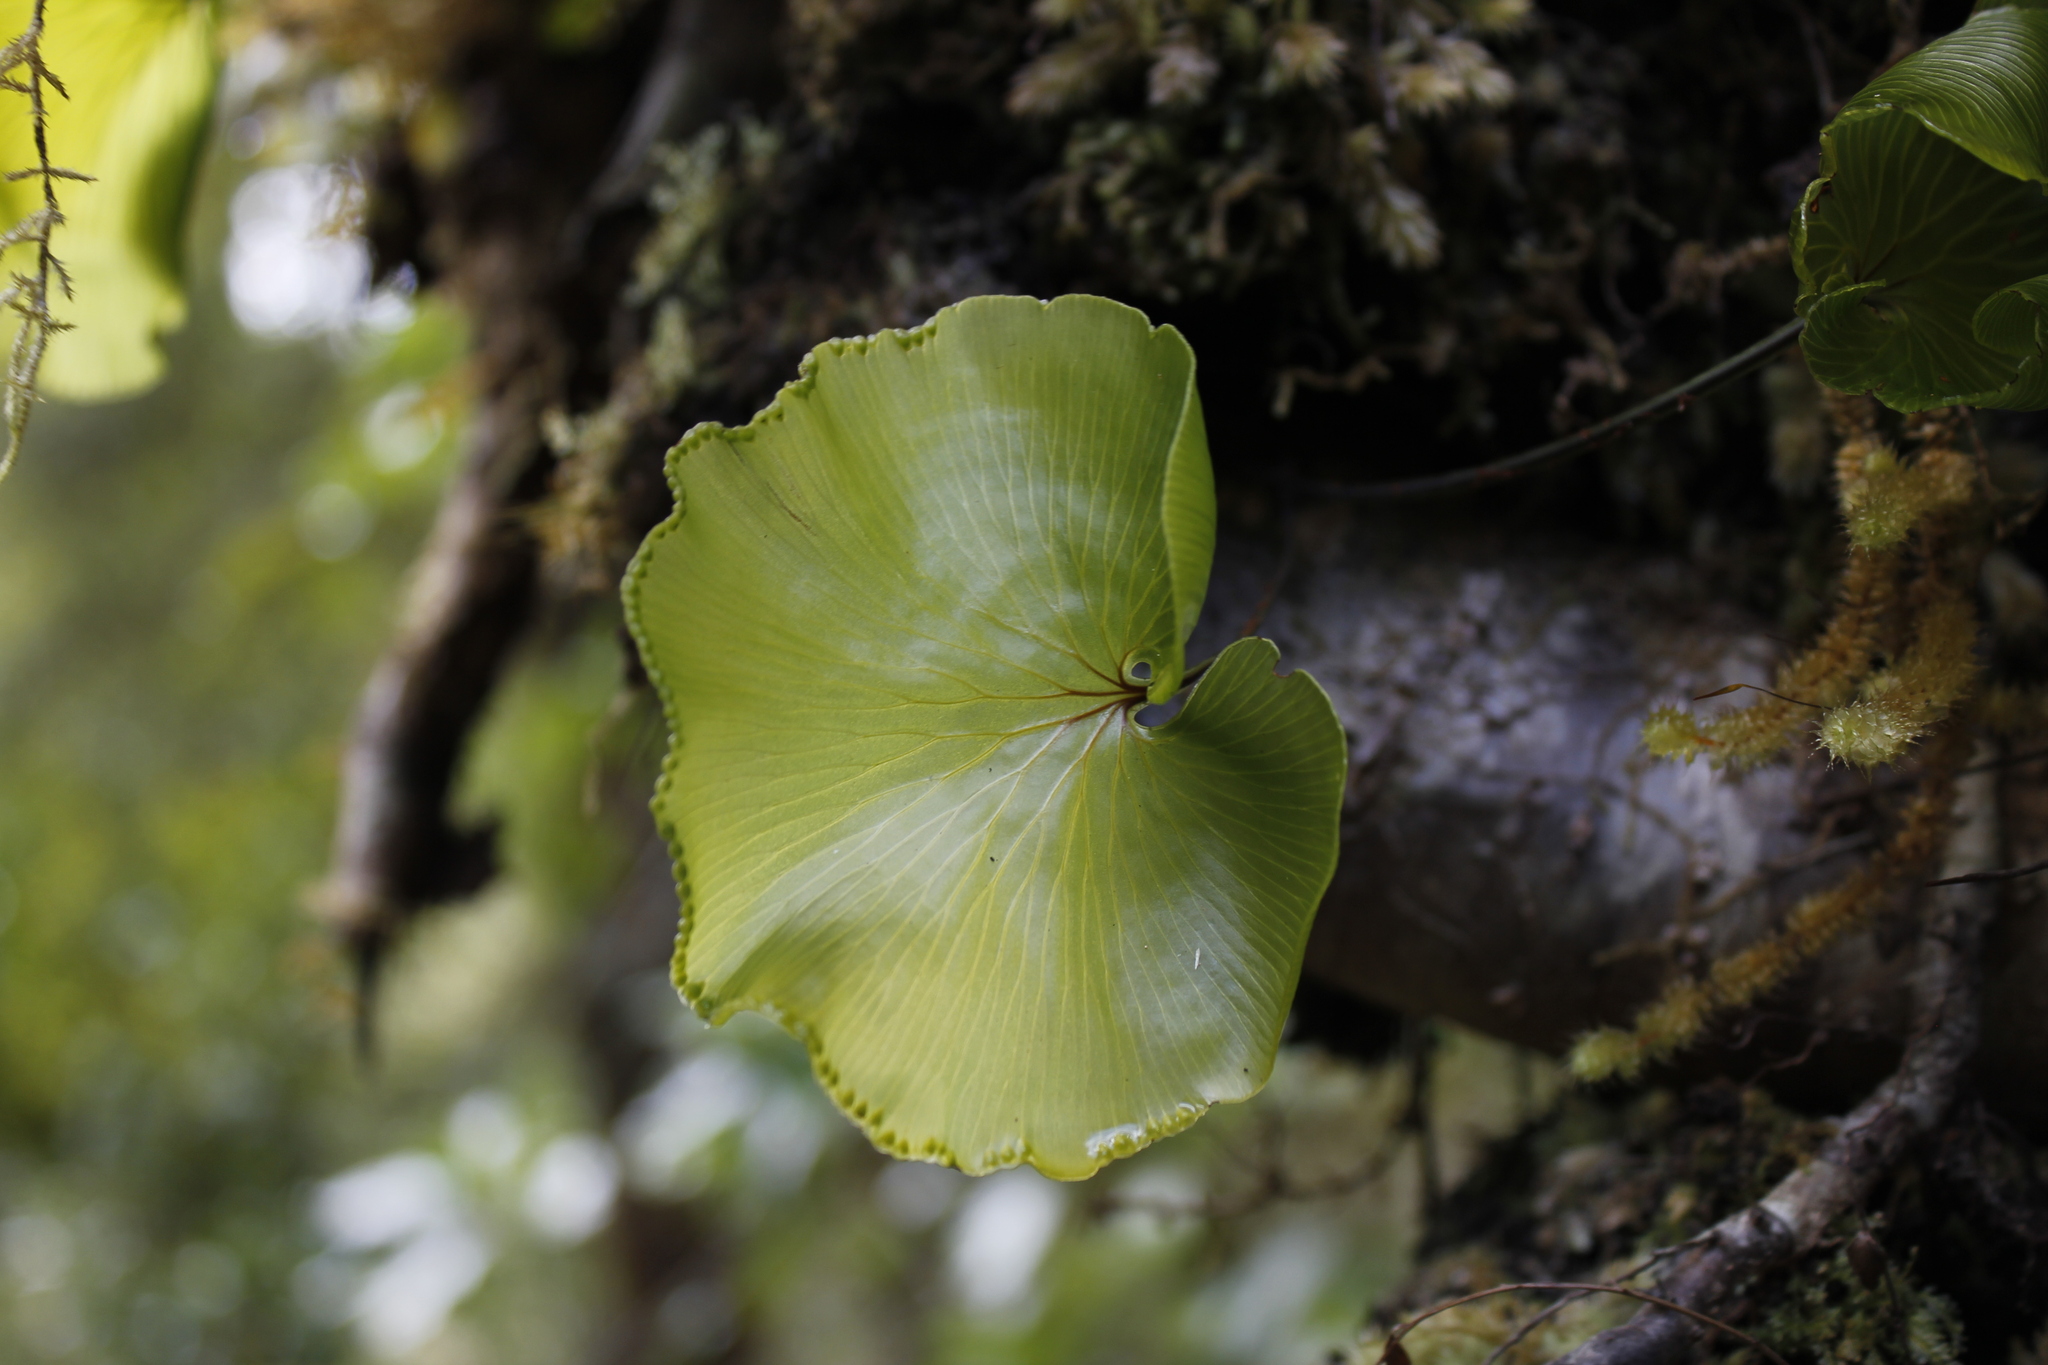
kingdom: Plantae
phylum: Tracheophyta
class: Polypodiopsida
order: Hymenophyllales
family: Hymenophyllaceae
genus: Hymenophyllum
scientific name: Hymenophyllum nephrophyllum
